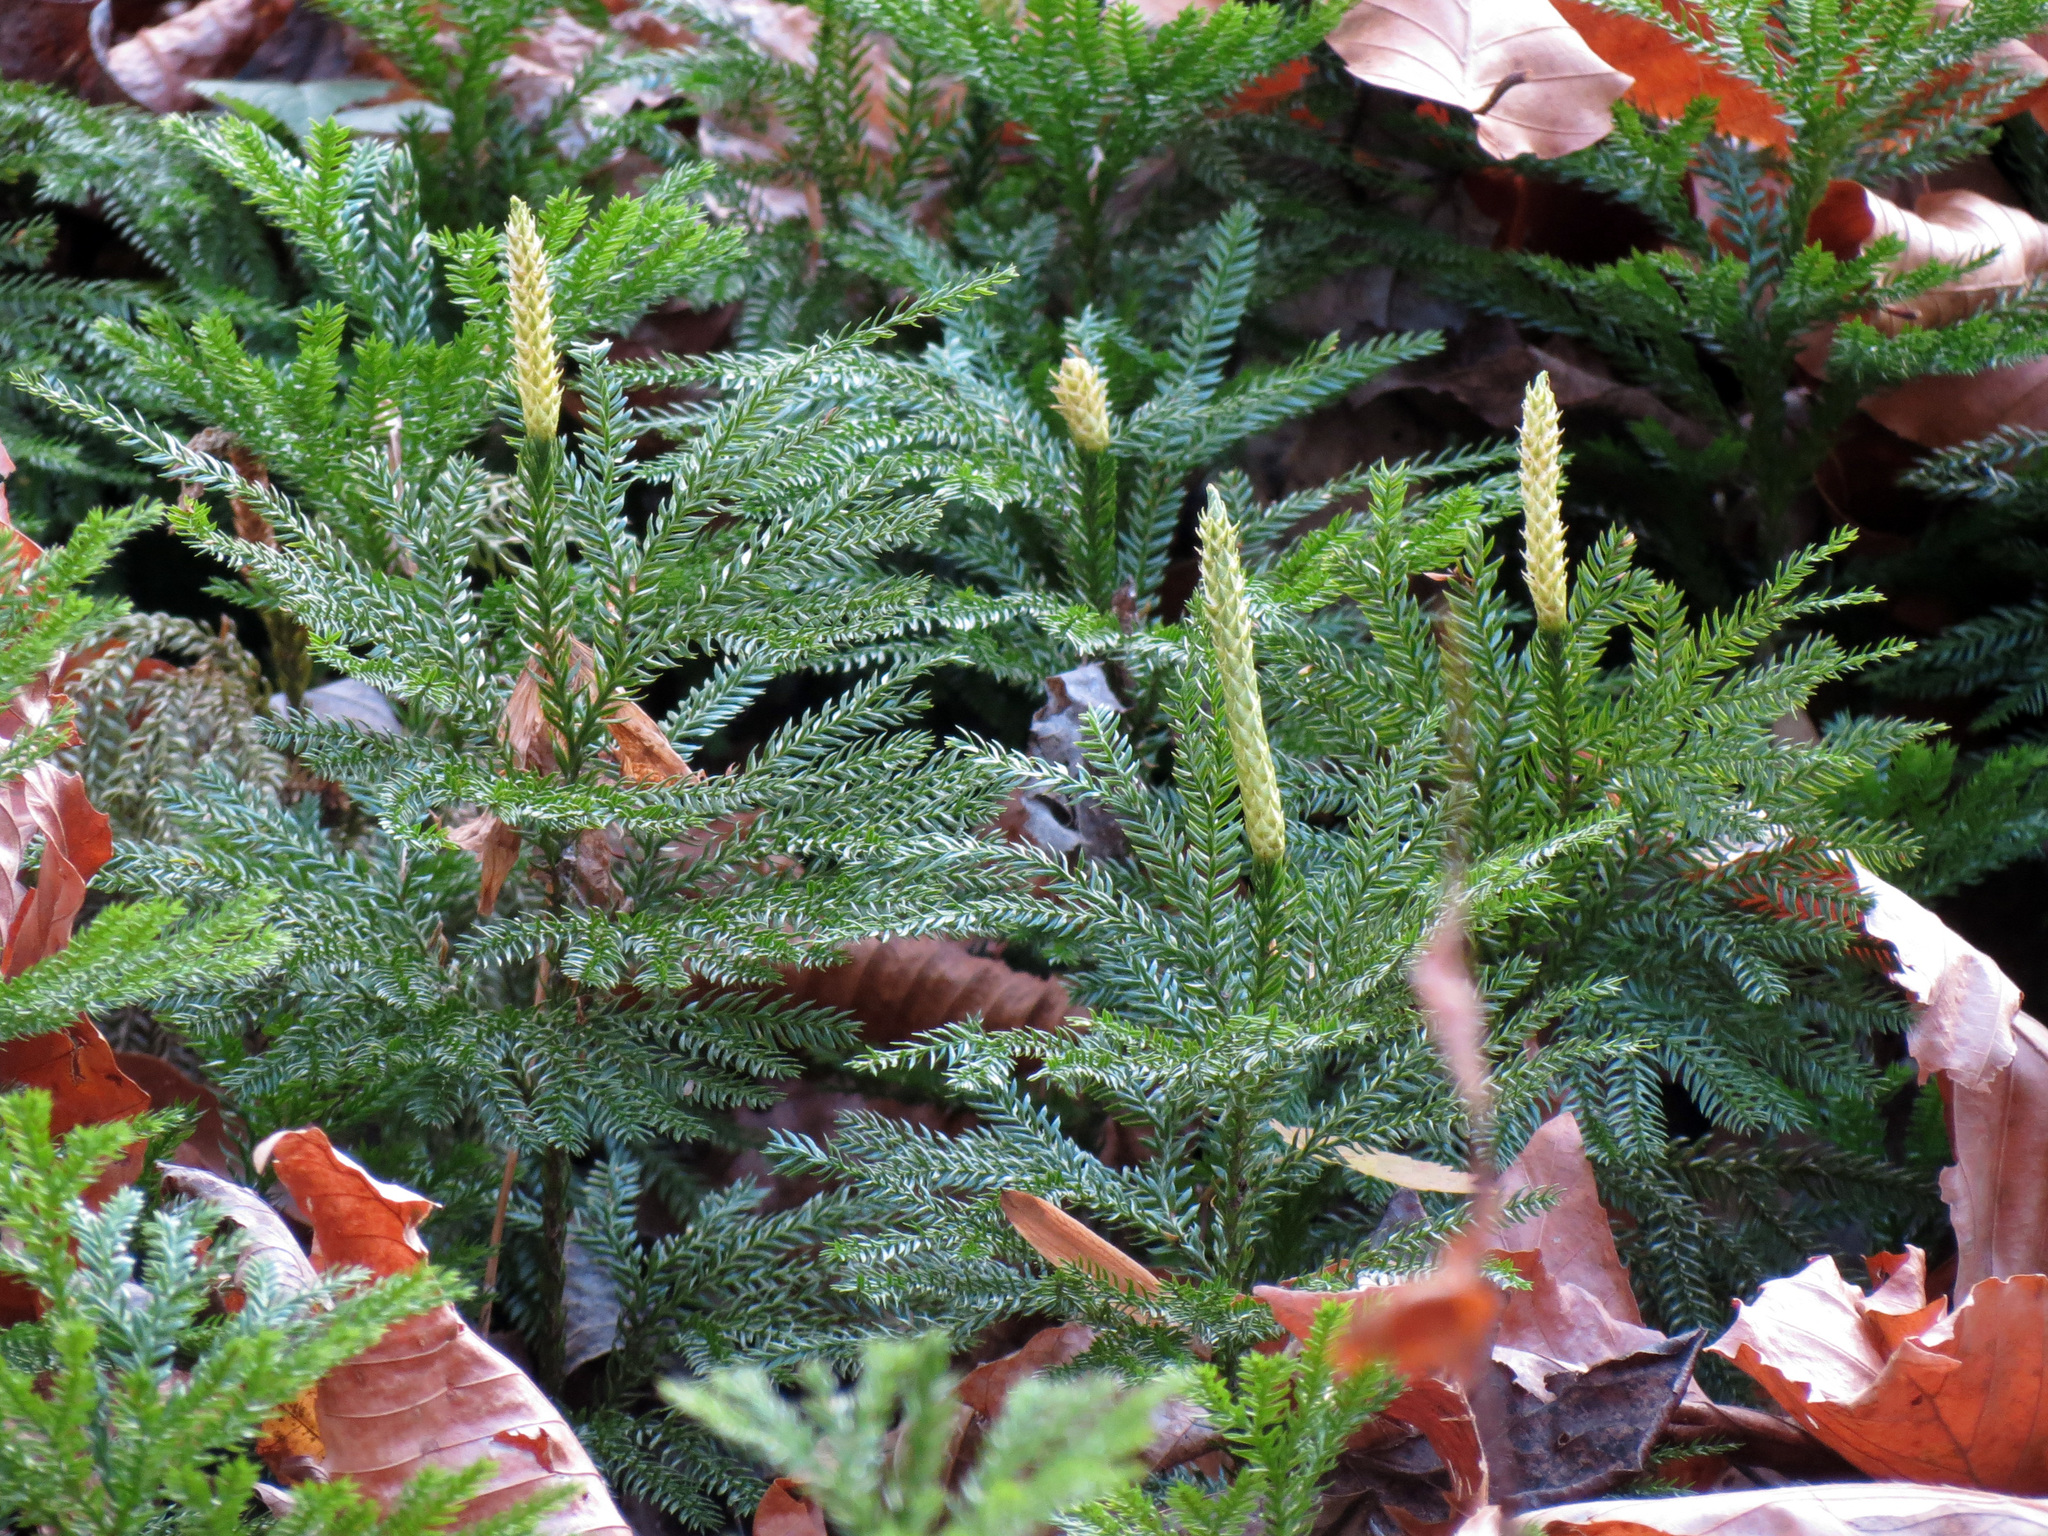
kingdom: Plantae
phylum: Tracheophyta
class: Lycopodiopsida
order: Lycopodiales
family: Lycopodiaceae
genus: Dendrolycopodium
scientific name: Dendrolycopodium obscurum
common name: Common ground-pine
